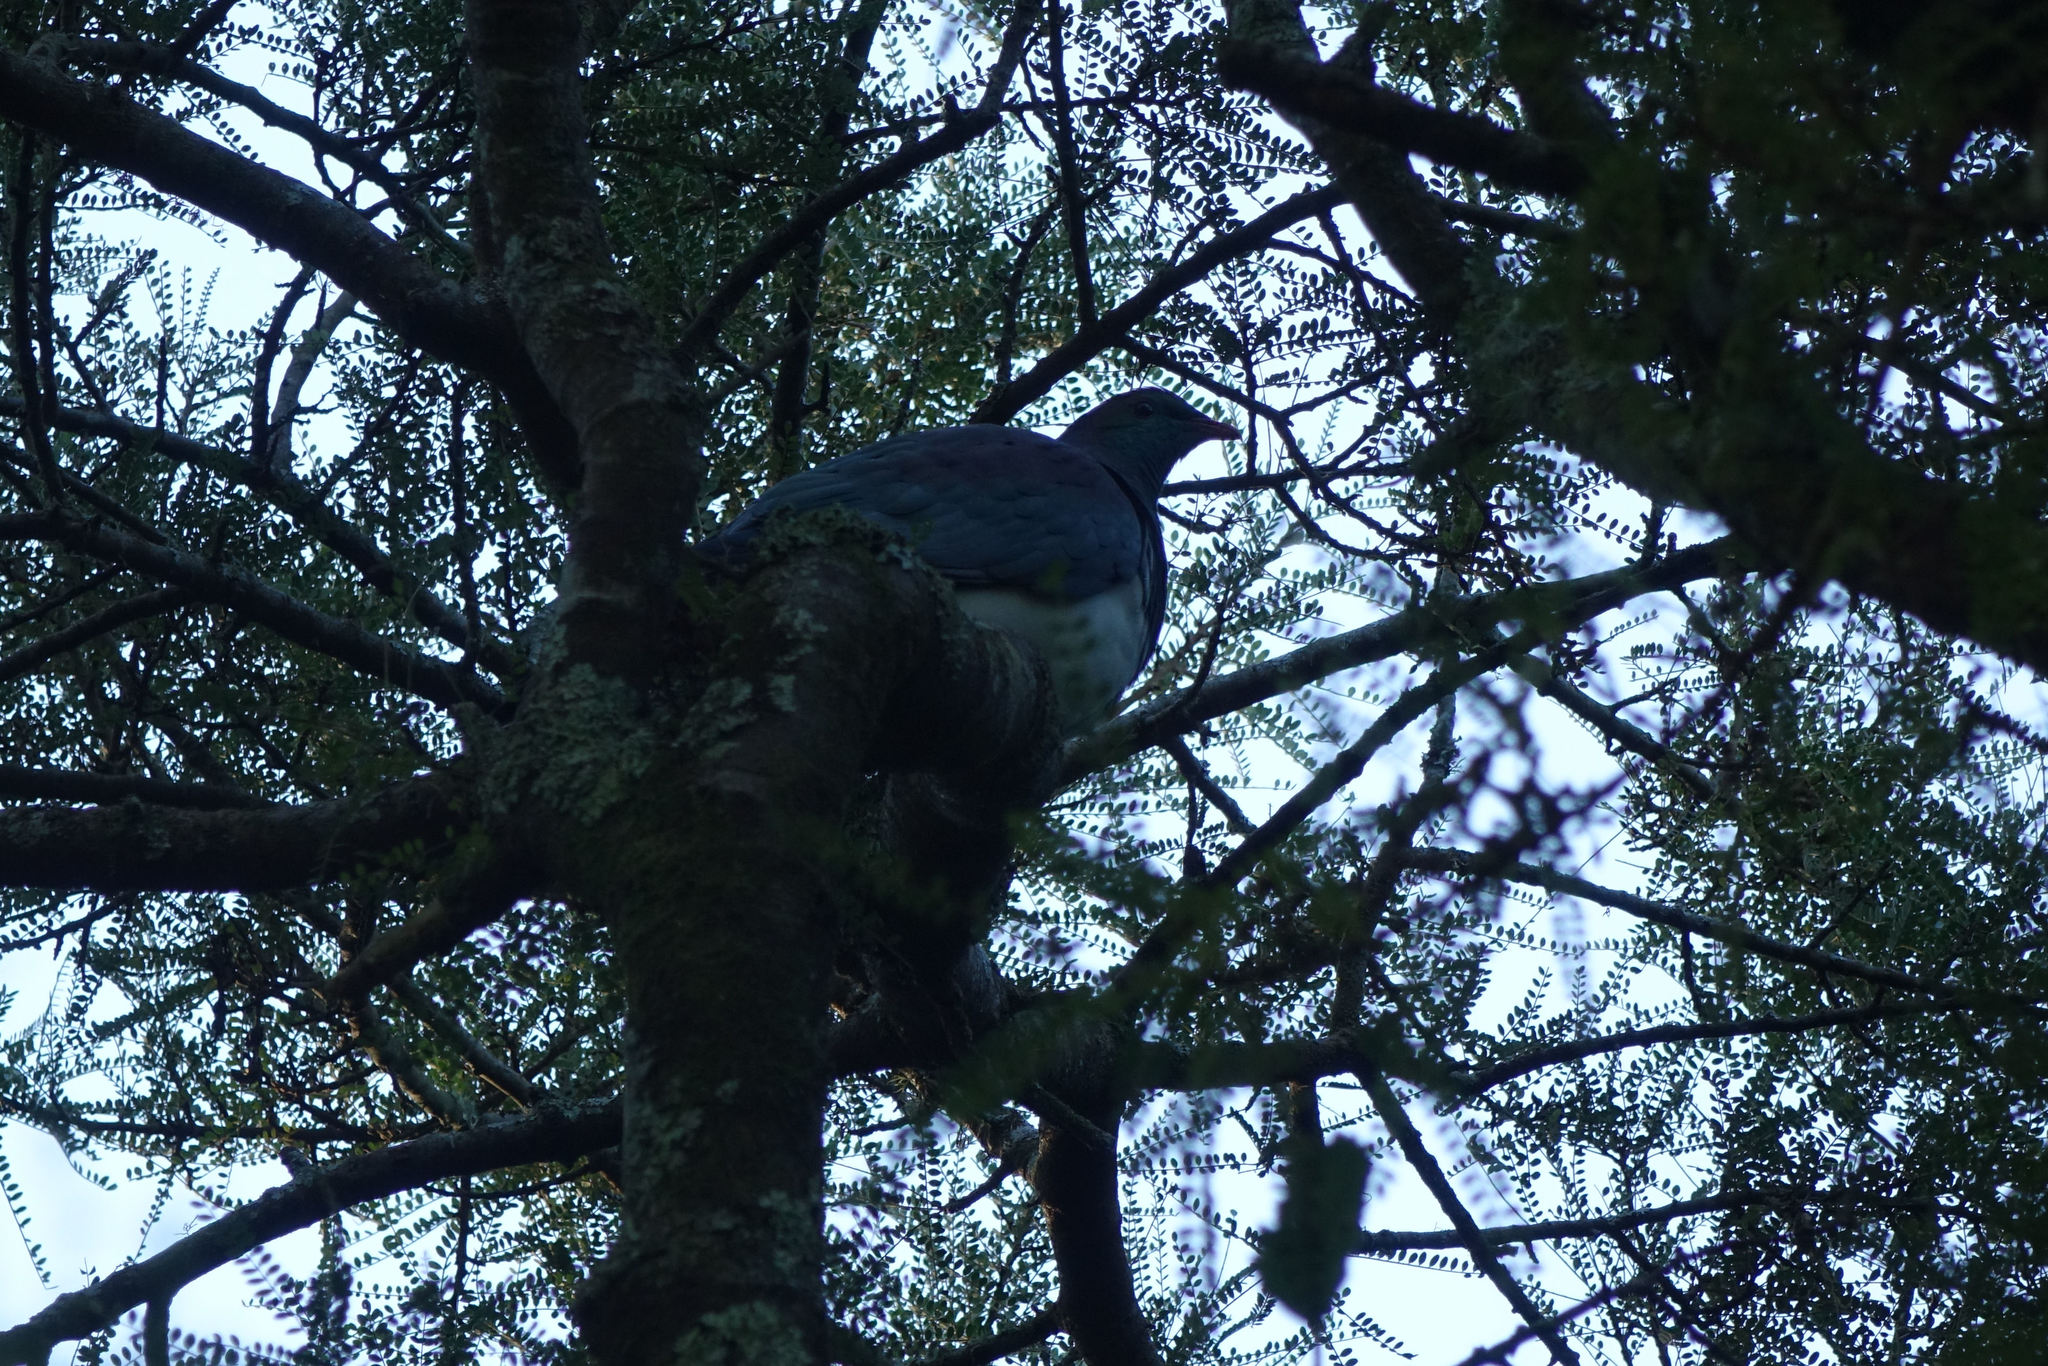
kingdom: Animalia
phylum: Chordata
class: Aves
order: Columbiformes
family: Columbidae
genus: Hemiphaga
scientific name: Hemiphaga novaeseelandiae
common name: New zealand pigeon
